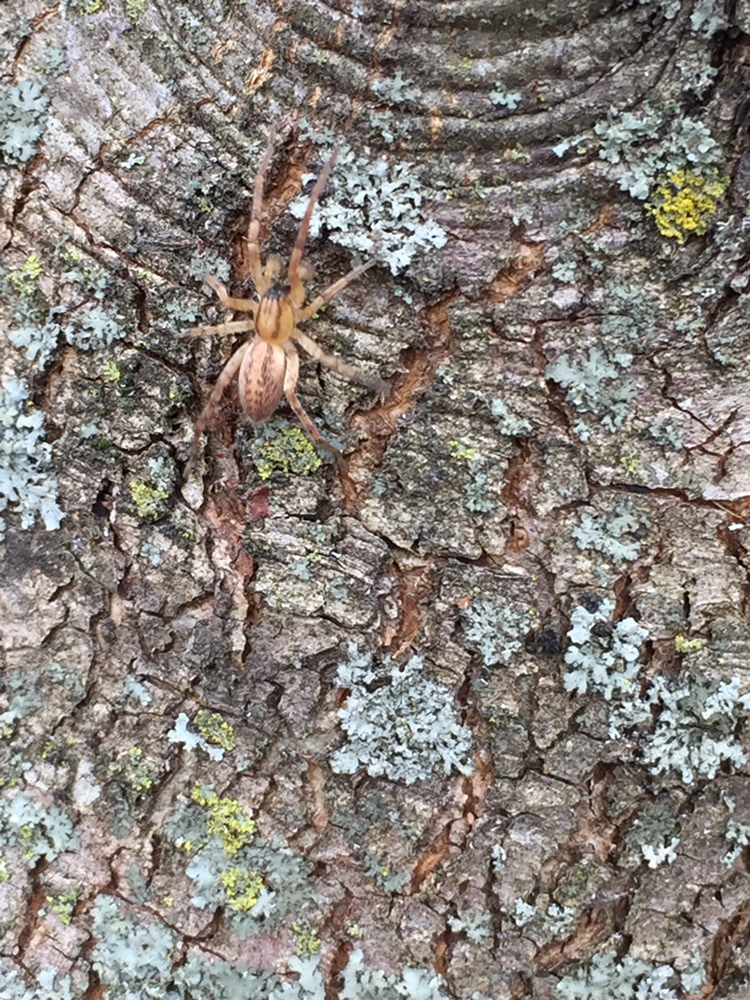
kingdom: Animalia
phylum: Arthropoda
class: Arachnida
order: Araneae
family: Anyphaenidae
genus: Hibana
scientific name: Hibana gracilis
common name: Garden ghost spider
